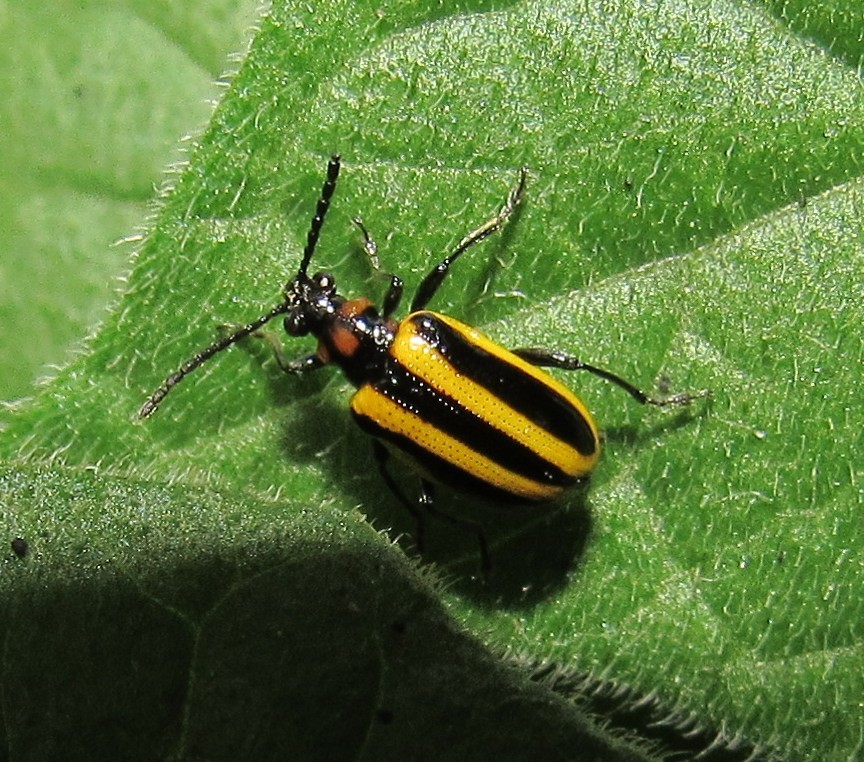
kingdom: Animalia
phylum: Arthropoda
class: Insecta
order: Coleoptera
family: Chrysomelidae
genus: Lema
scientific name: Lema confusa
